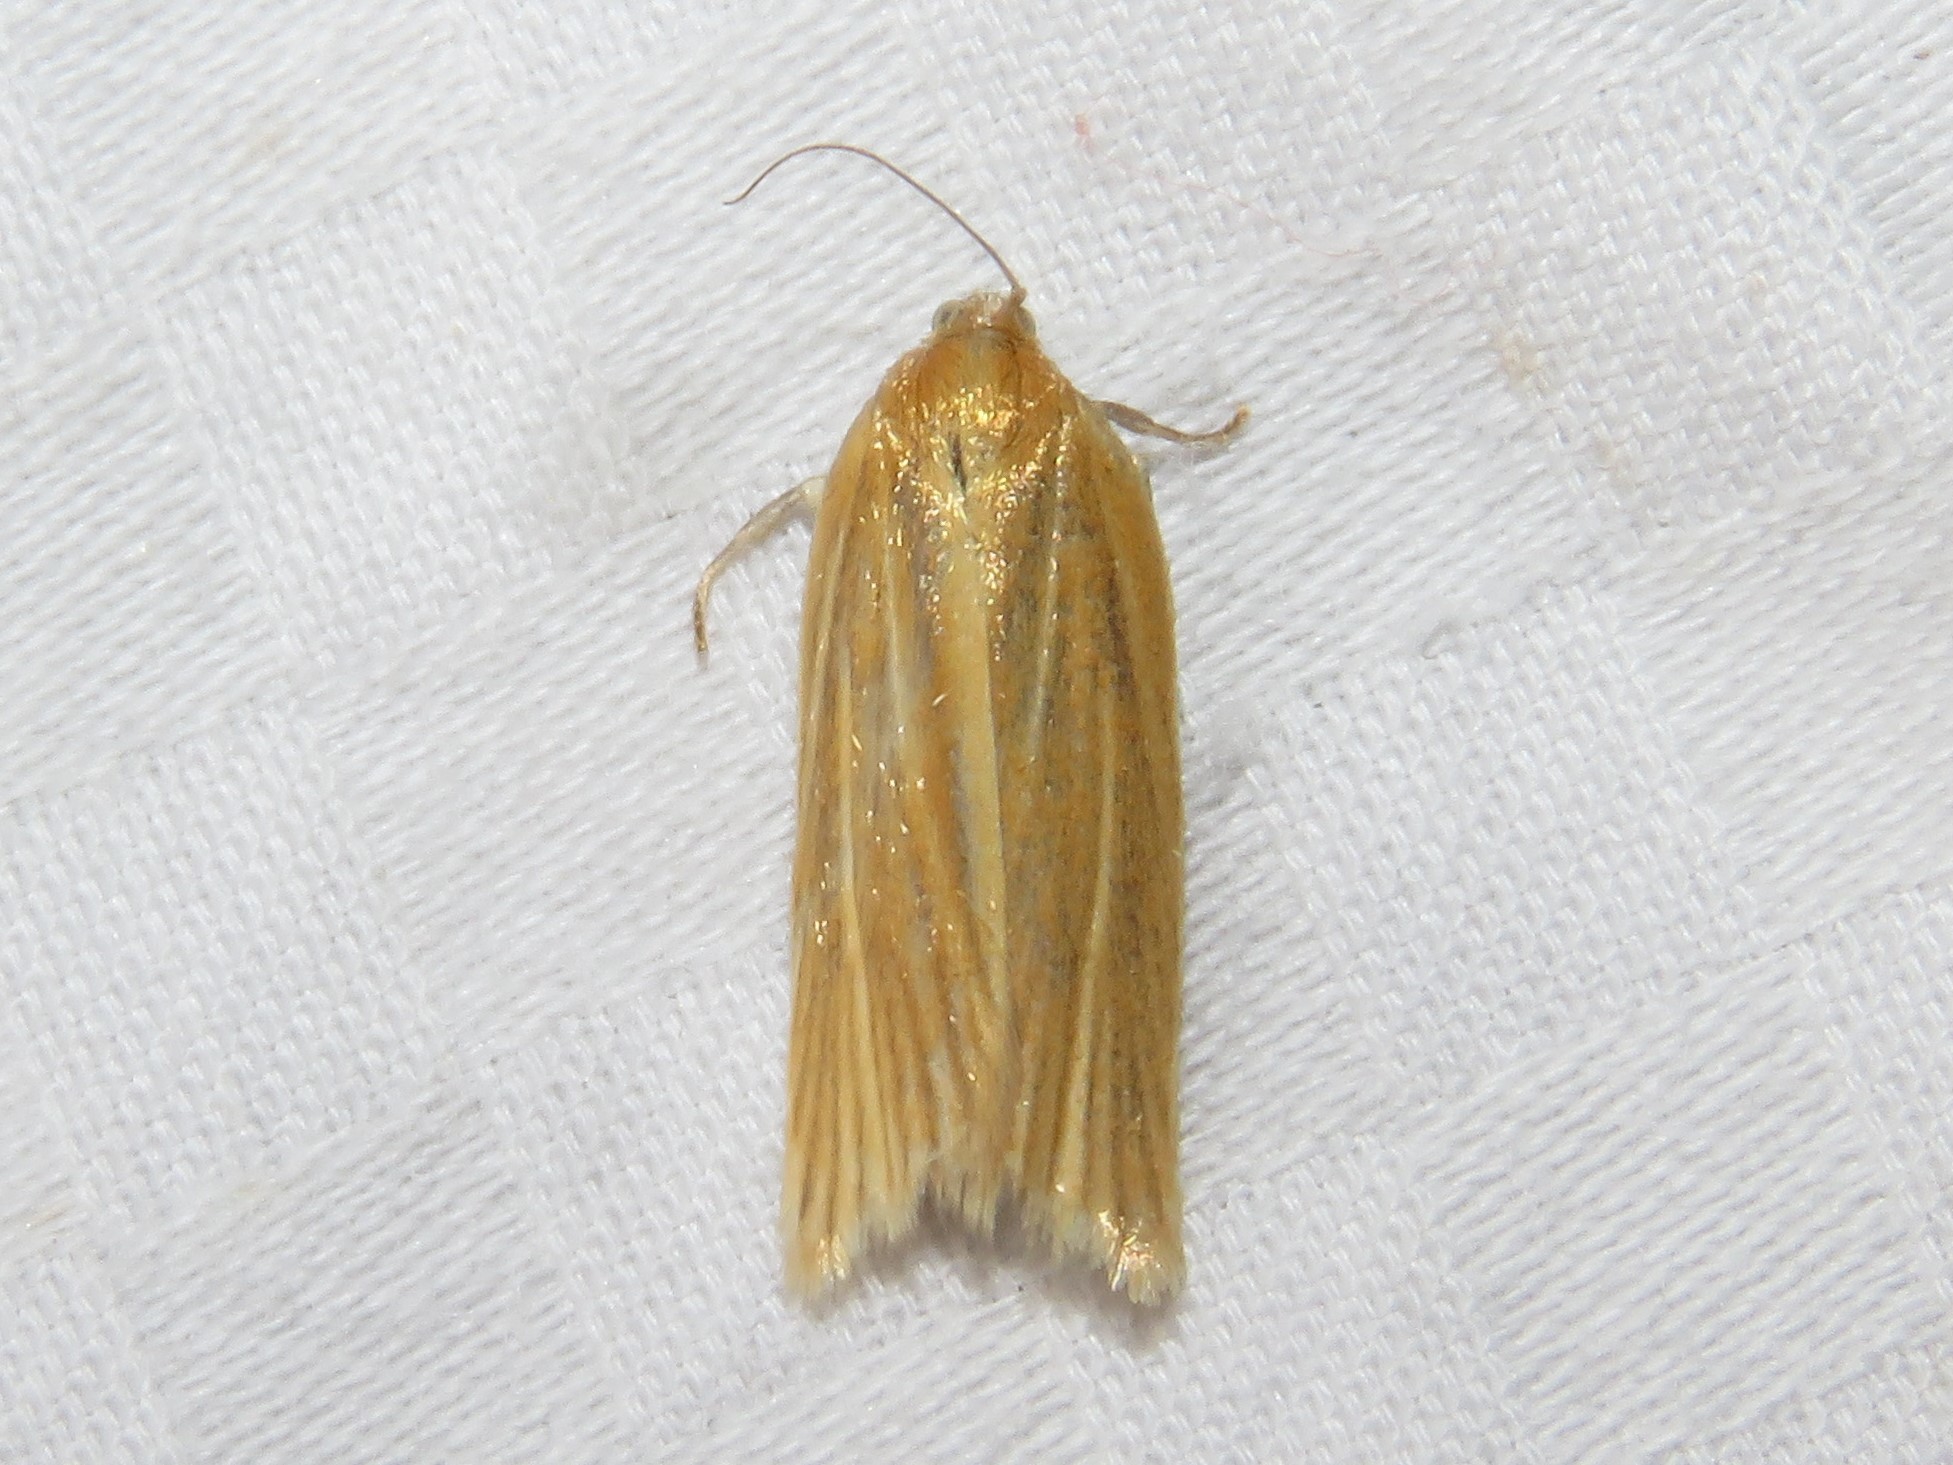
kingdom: Animalia
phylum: Arthropoda
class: Insecta
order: Lepidoptera
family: Tortricidae
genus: Clepsis
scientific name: Clepsis clemensiana
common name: Clemens' clepsis moth
